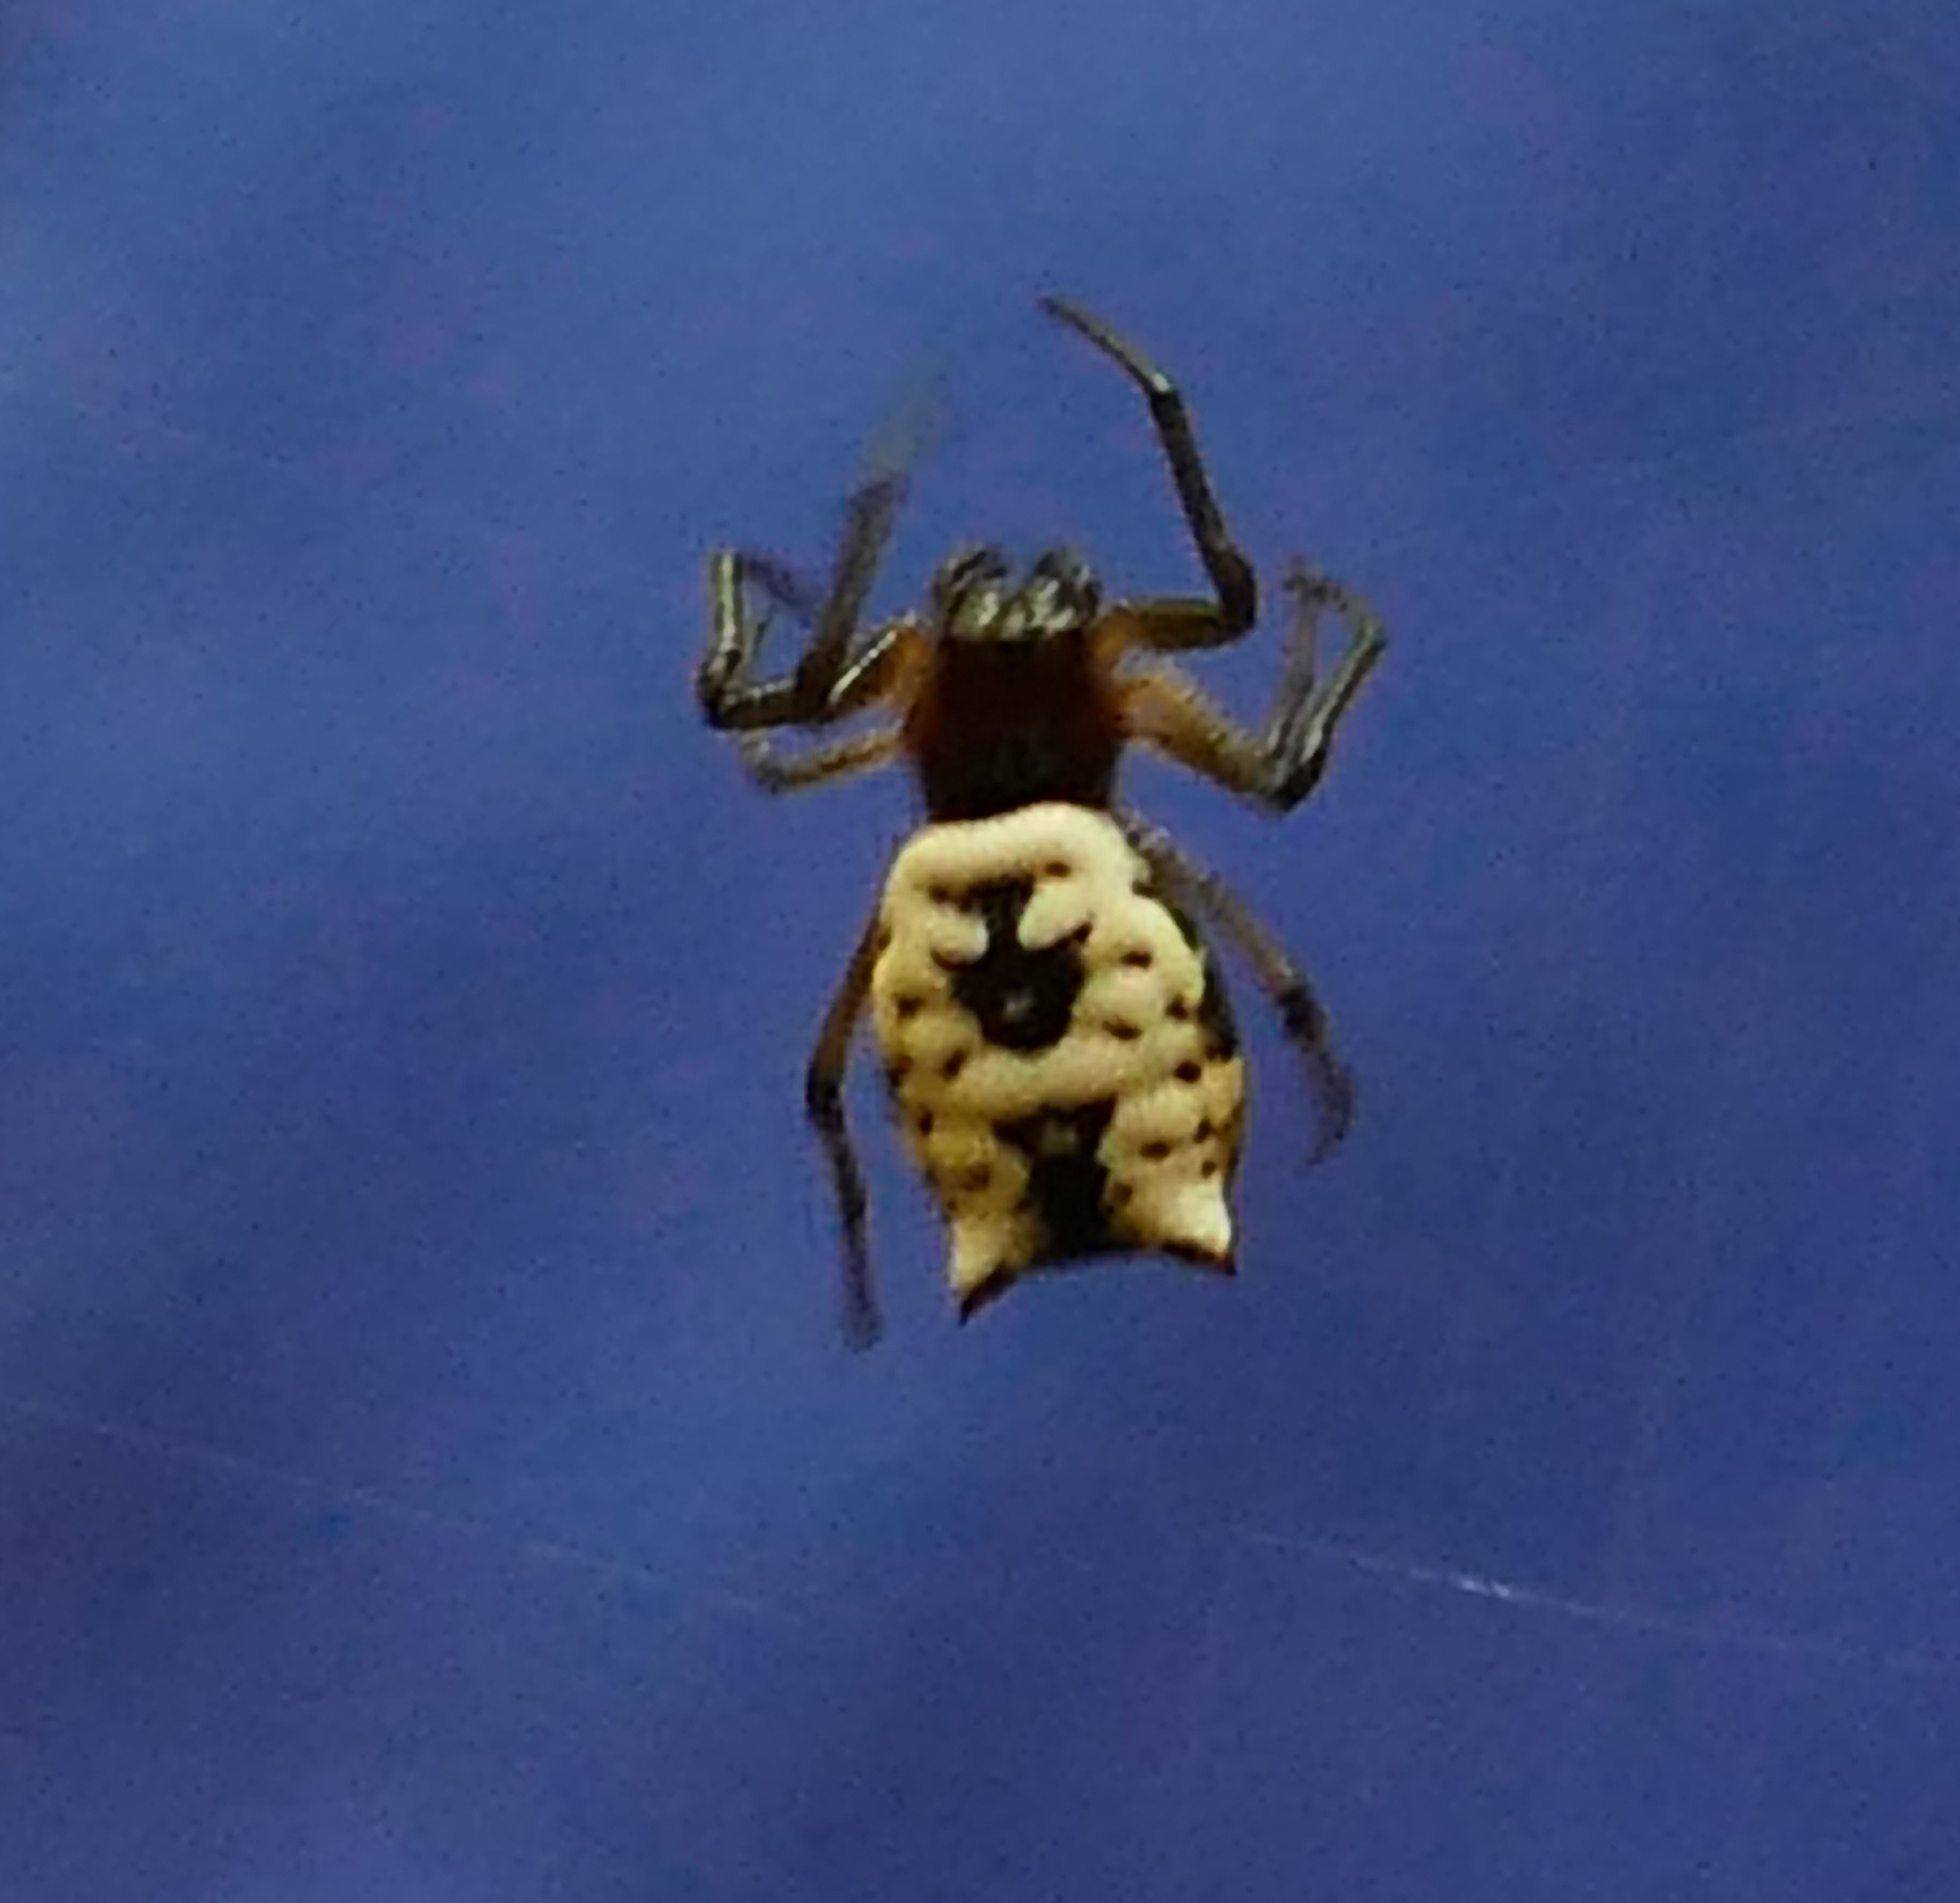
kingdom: Animalia
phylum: Arthropoda
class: Arachnida
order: Araneae
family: Araneidae
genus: Micrathena
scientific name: Micrathena mitrata
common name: Orb weavers
